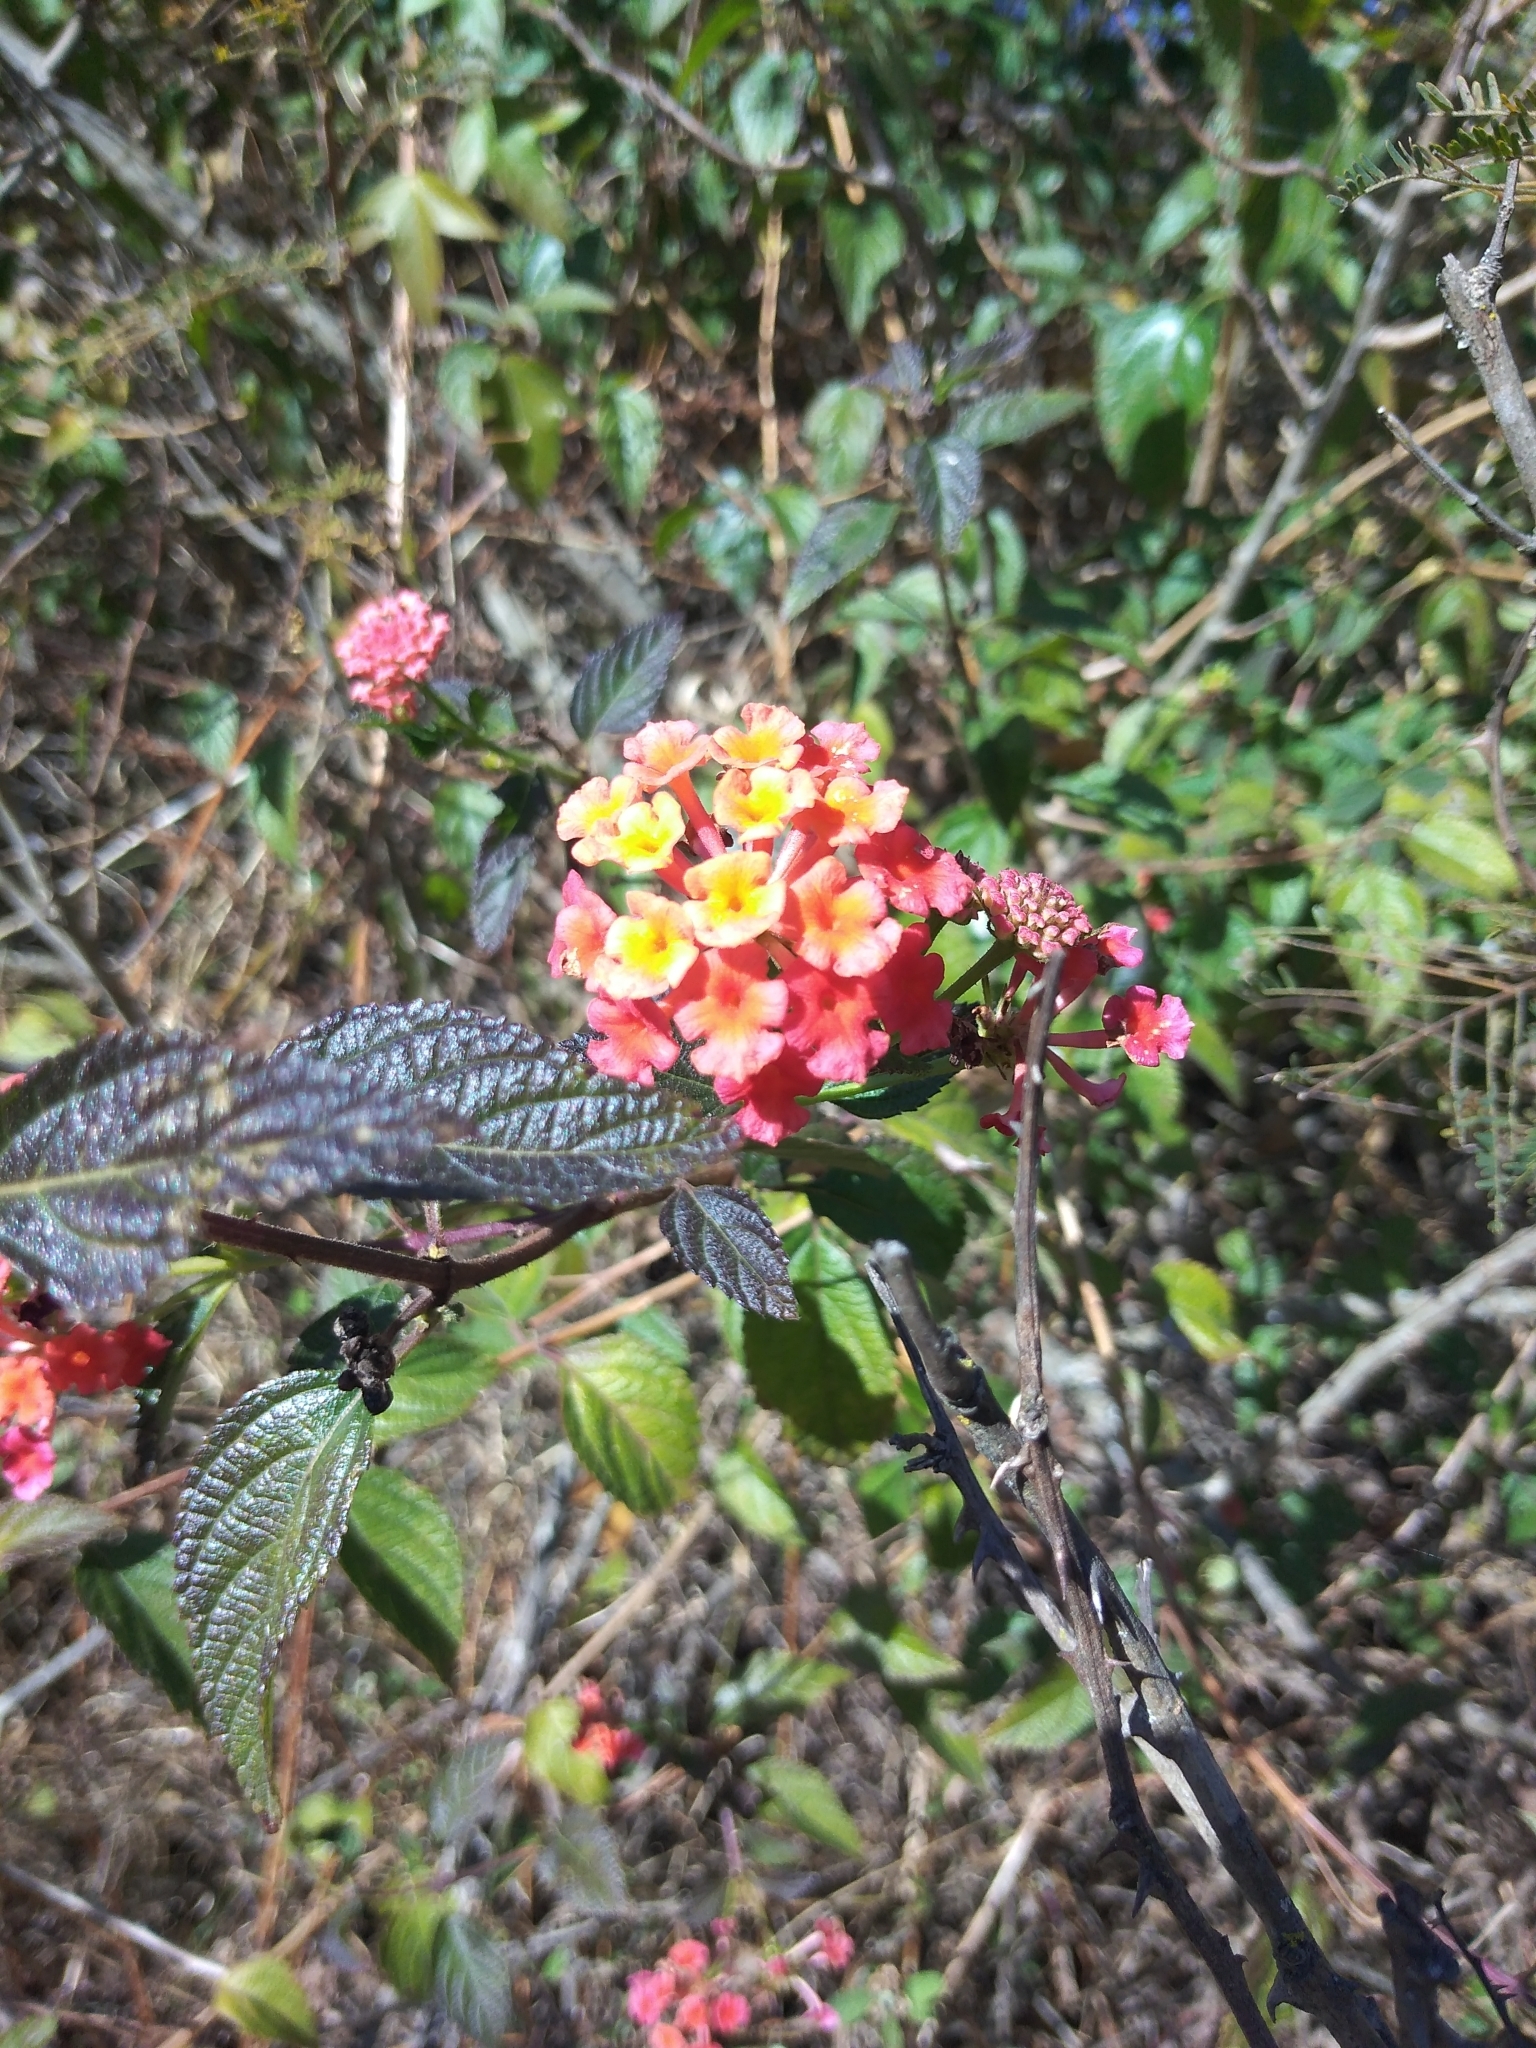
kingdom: Plantae
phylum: Tracheophyta
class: Magnoliopsida
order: Lamiales
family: Verbenaceae
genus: Lantana
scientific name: Lantana camara
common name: Lantana
